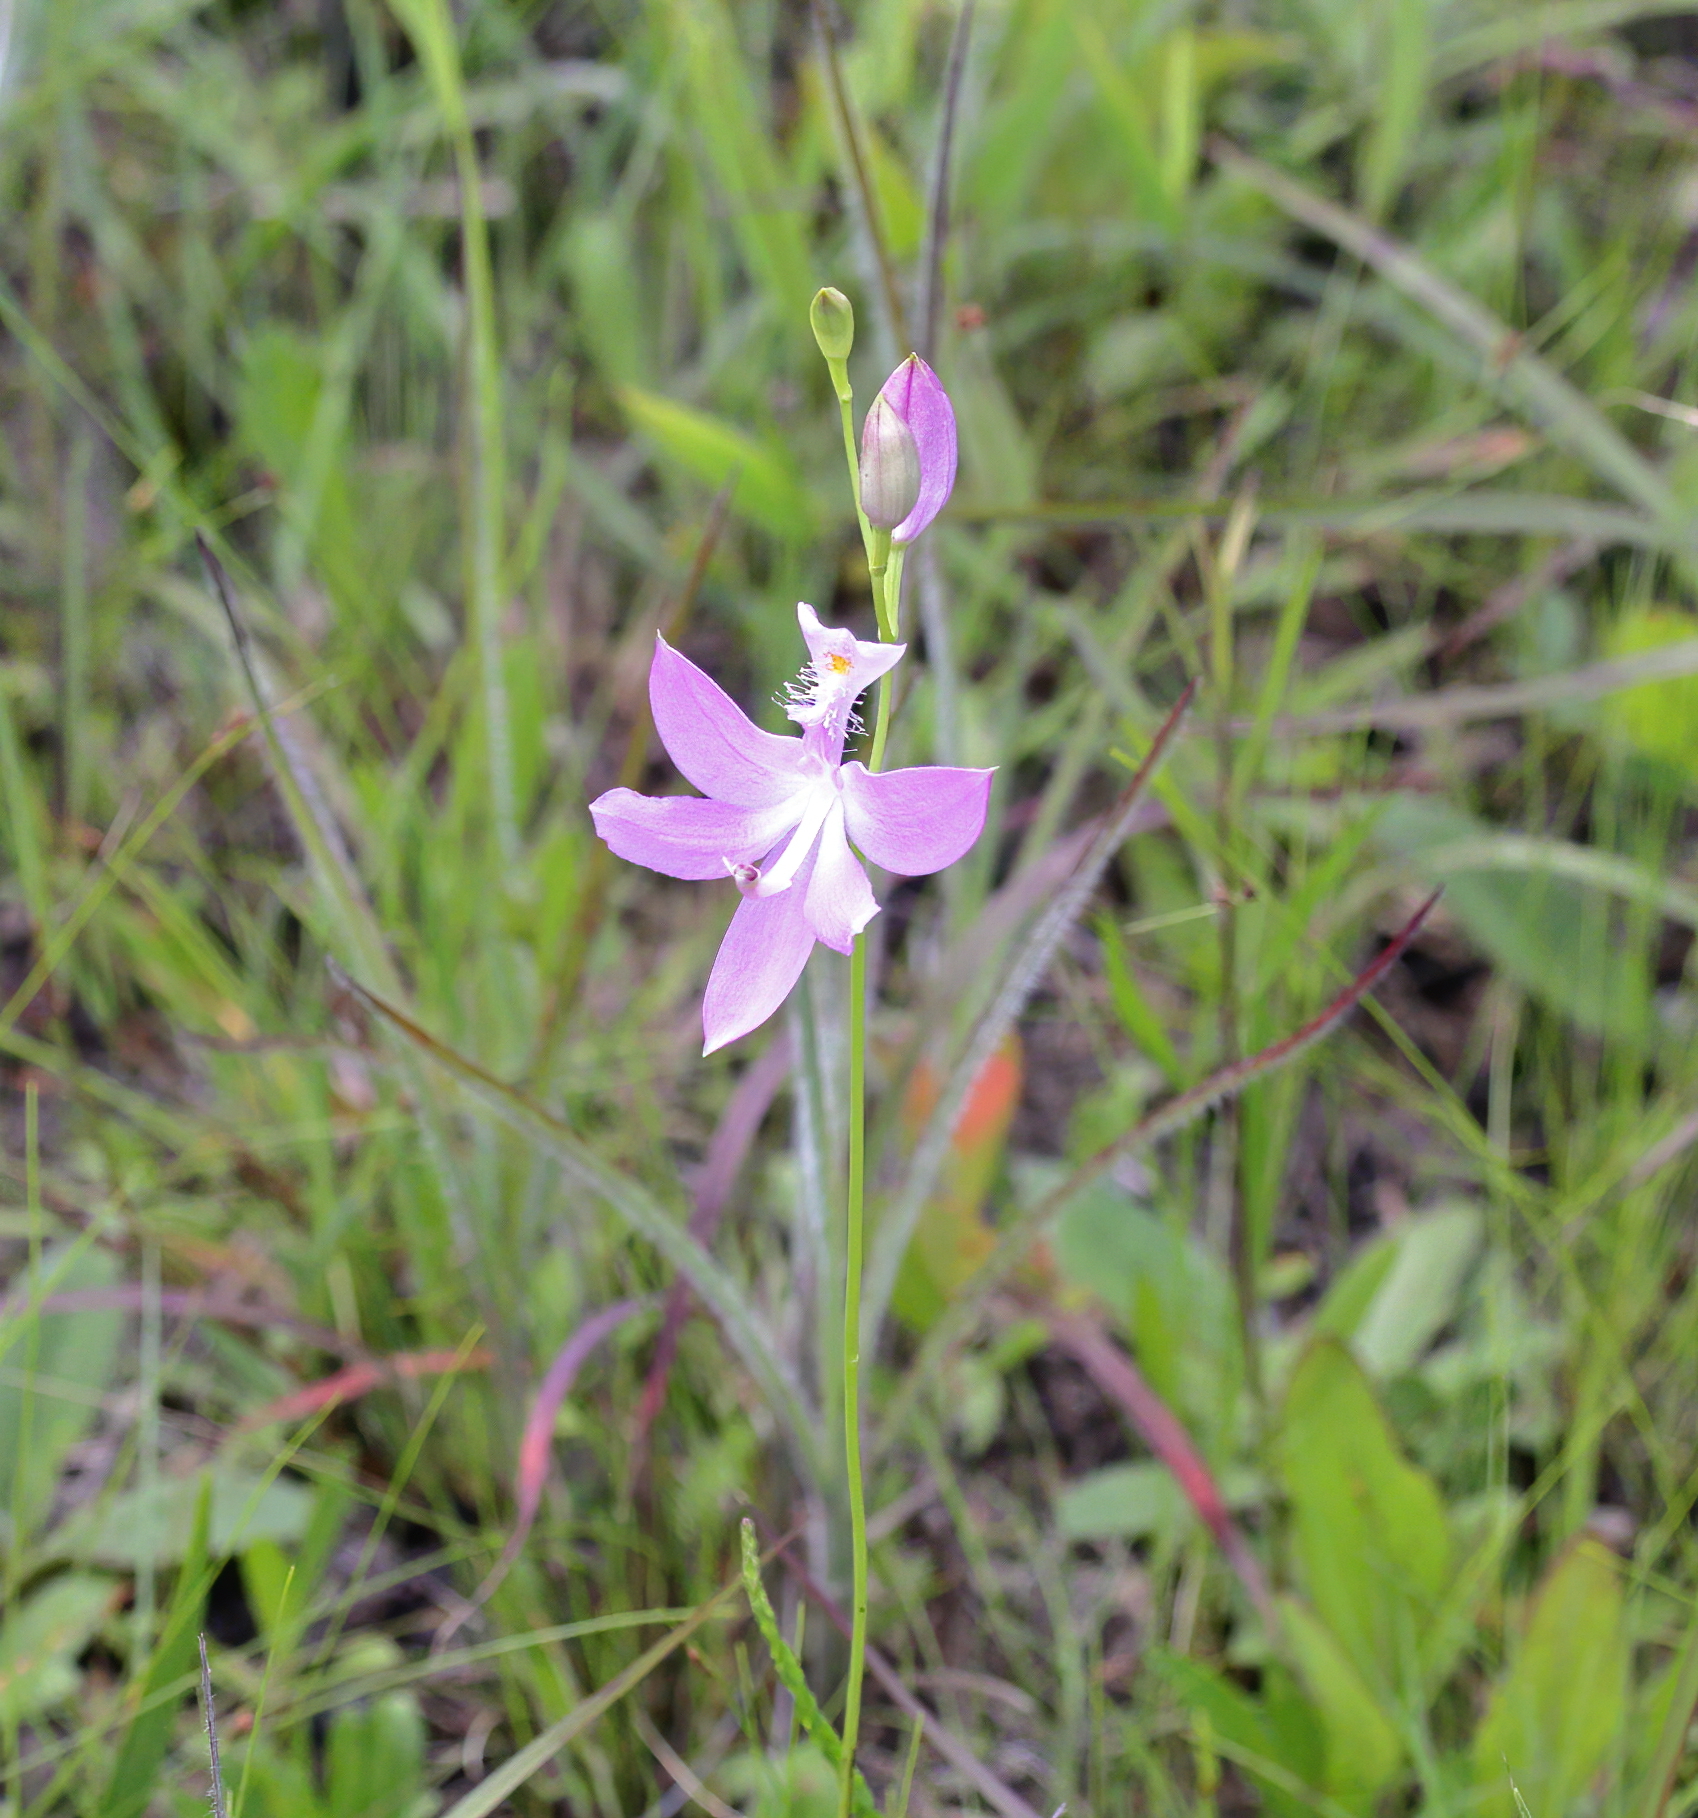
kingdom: Plantae
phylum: Tracheophyta
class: Liliopsida
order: Asparagales
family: Orchidaceae
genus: Calopogon
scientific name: Calopogon tuberosus
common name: Grass-pink
